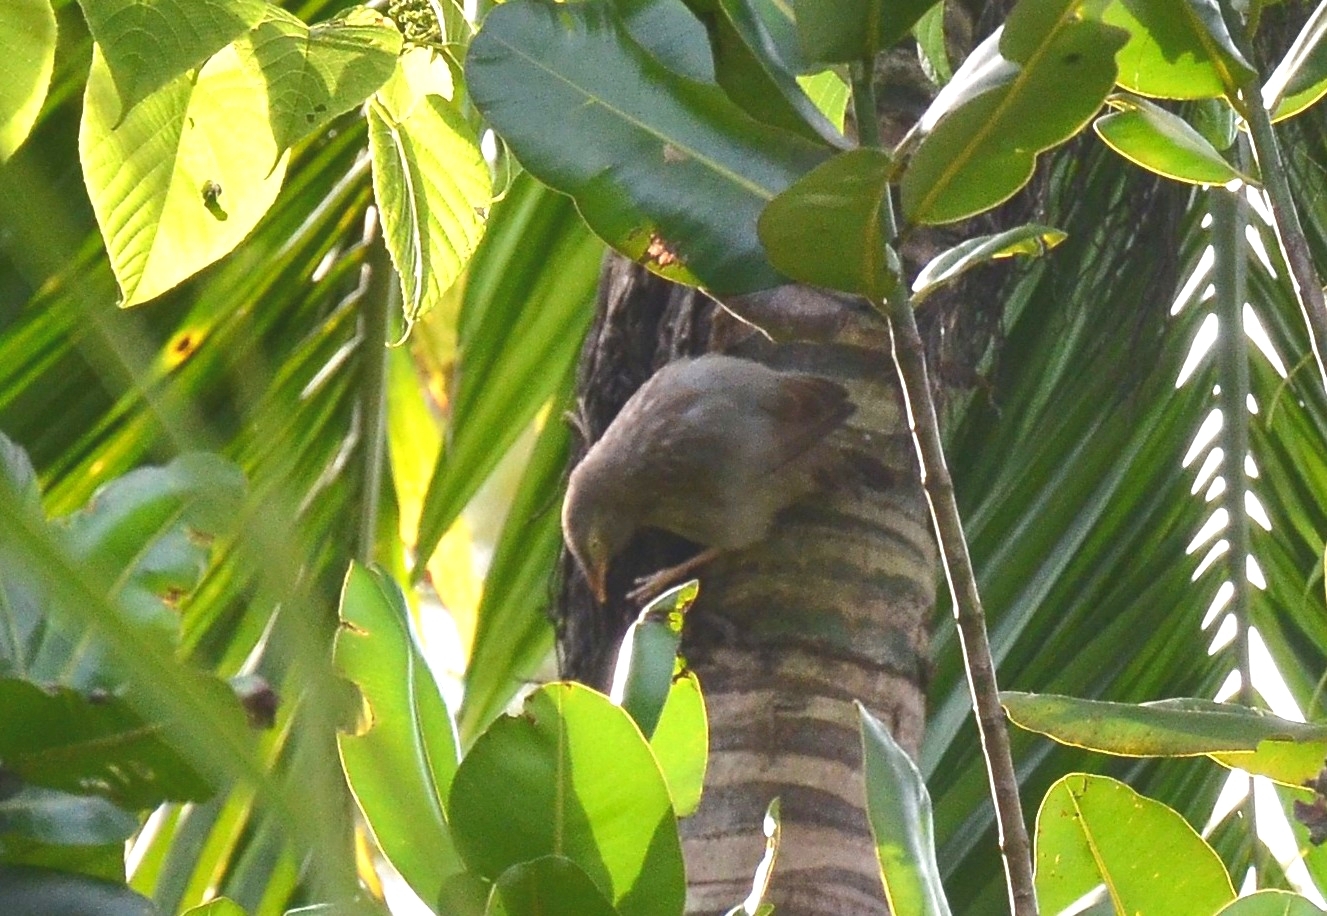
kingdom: Animalia
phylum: Chordata
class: Aves
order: Passeriformes
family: Leiothrichidae
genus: Turdoides
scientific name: Turdoides striata
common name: Jungle babbler
